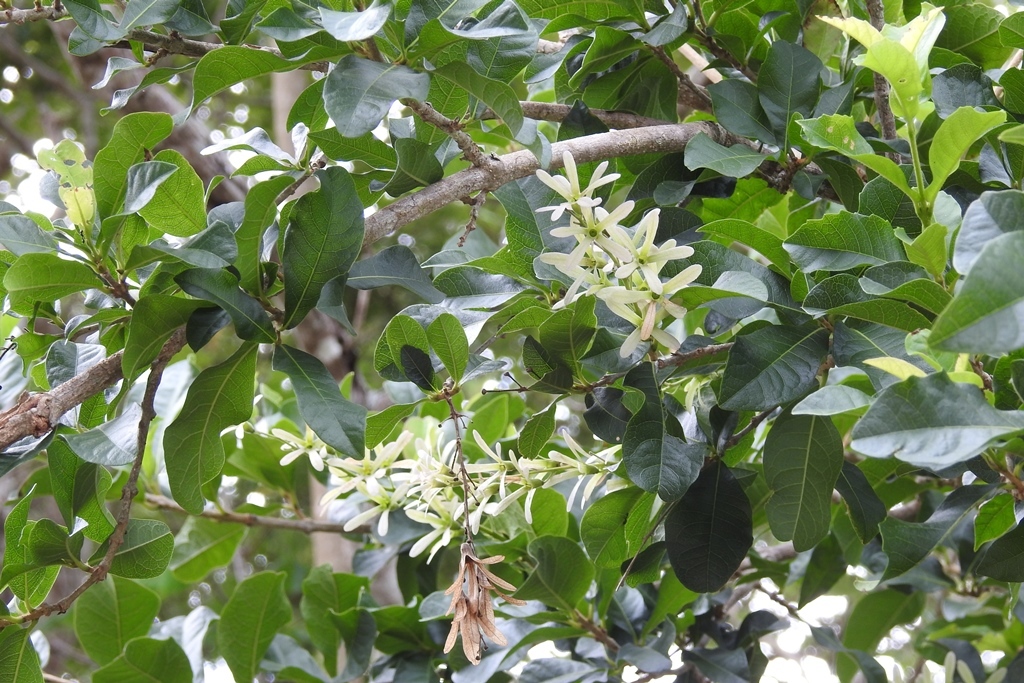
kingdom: Plantae
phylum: Tracheophyta
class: Magnoliopsida
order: Lamiales
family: Verbenaceae
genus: Petrea
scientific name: Petrea volubilis
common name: Queen's-wreath
